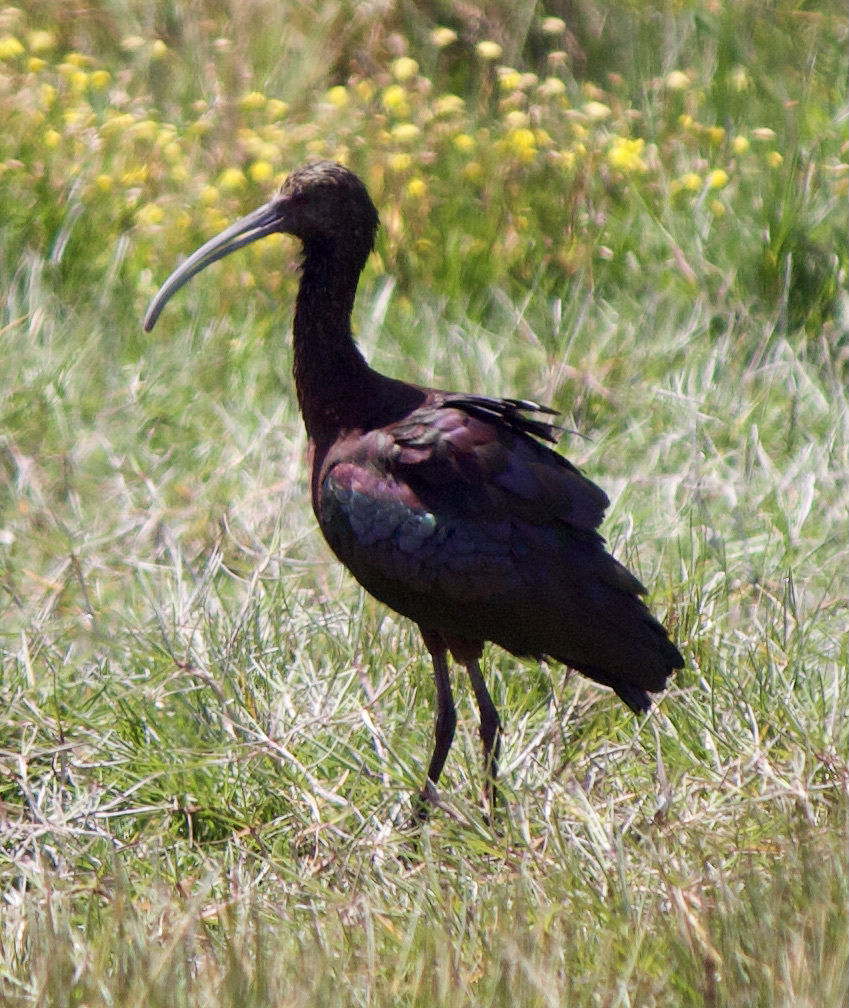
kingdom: Animalia
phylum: Chordata
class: Aves
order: Pelecaniformes
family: Threskiornithidae
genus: Plegadis
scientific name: Plegadis chihi
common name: White-faced ibis
